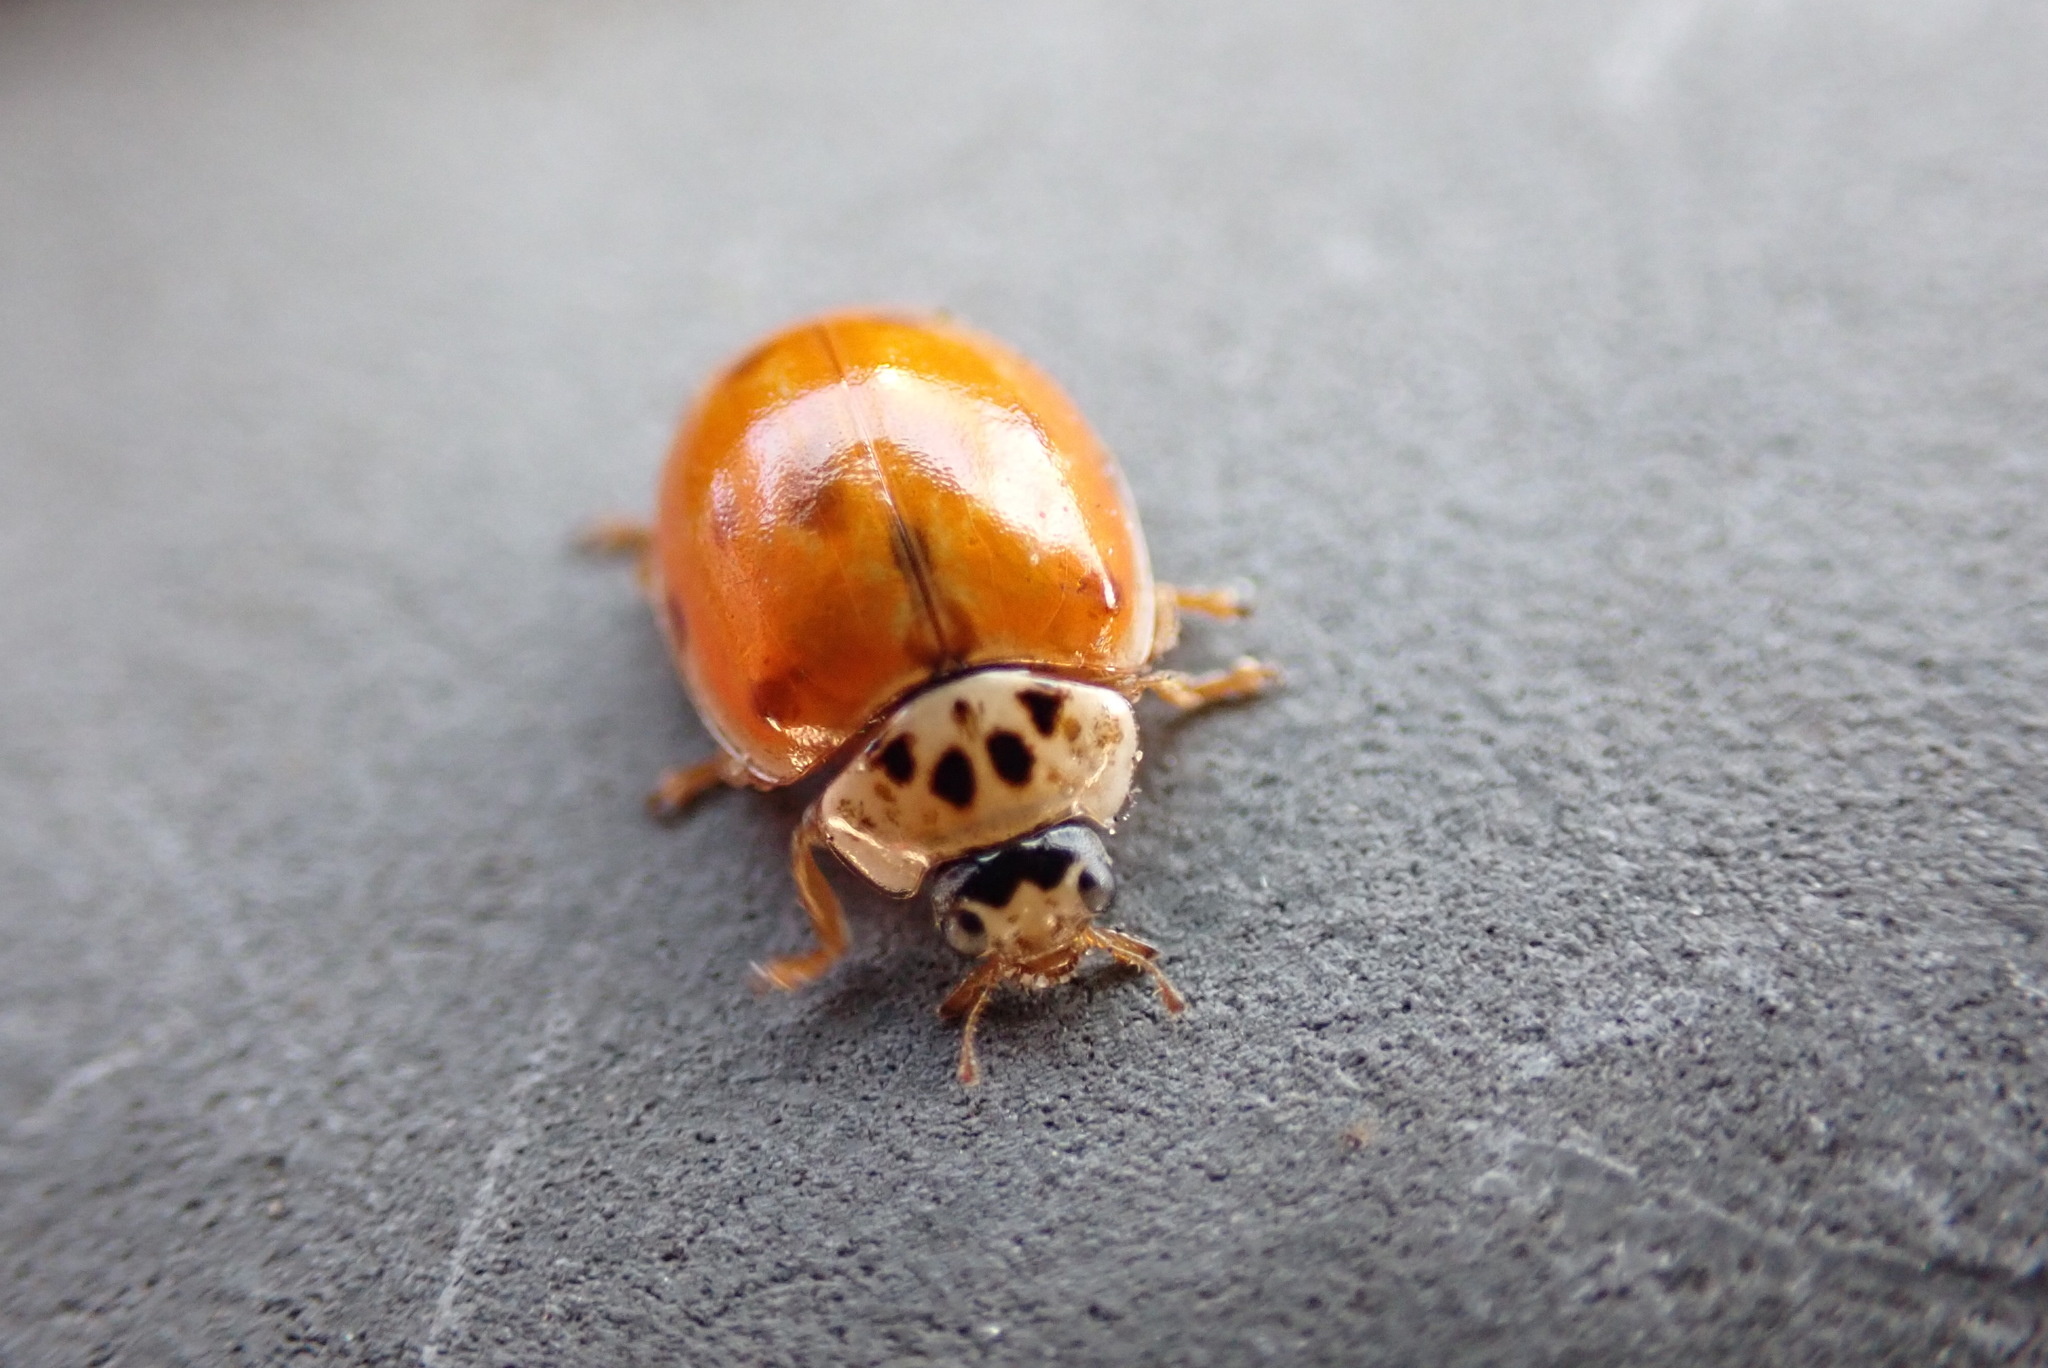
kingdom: Animalia
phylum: Arthropoda
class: Insecta
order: Coleoptera
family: Coccinellidae
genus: Adalia
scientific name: Adalia decempunctata
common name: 10-spot ladybird
